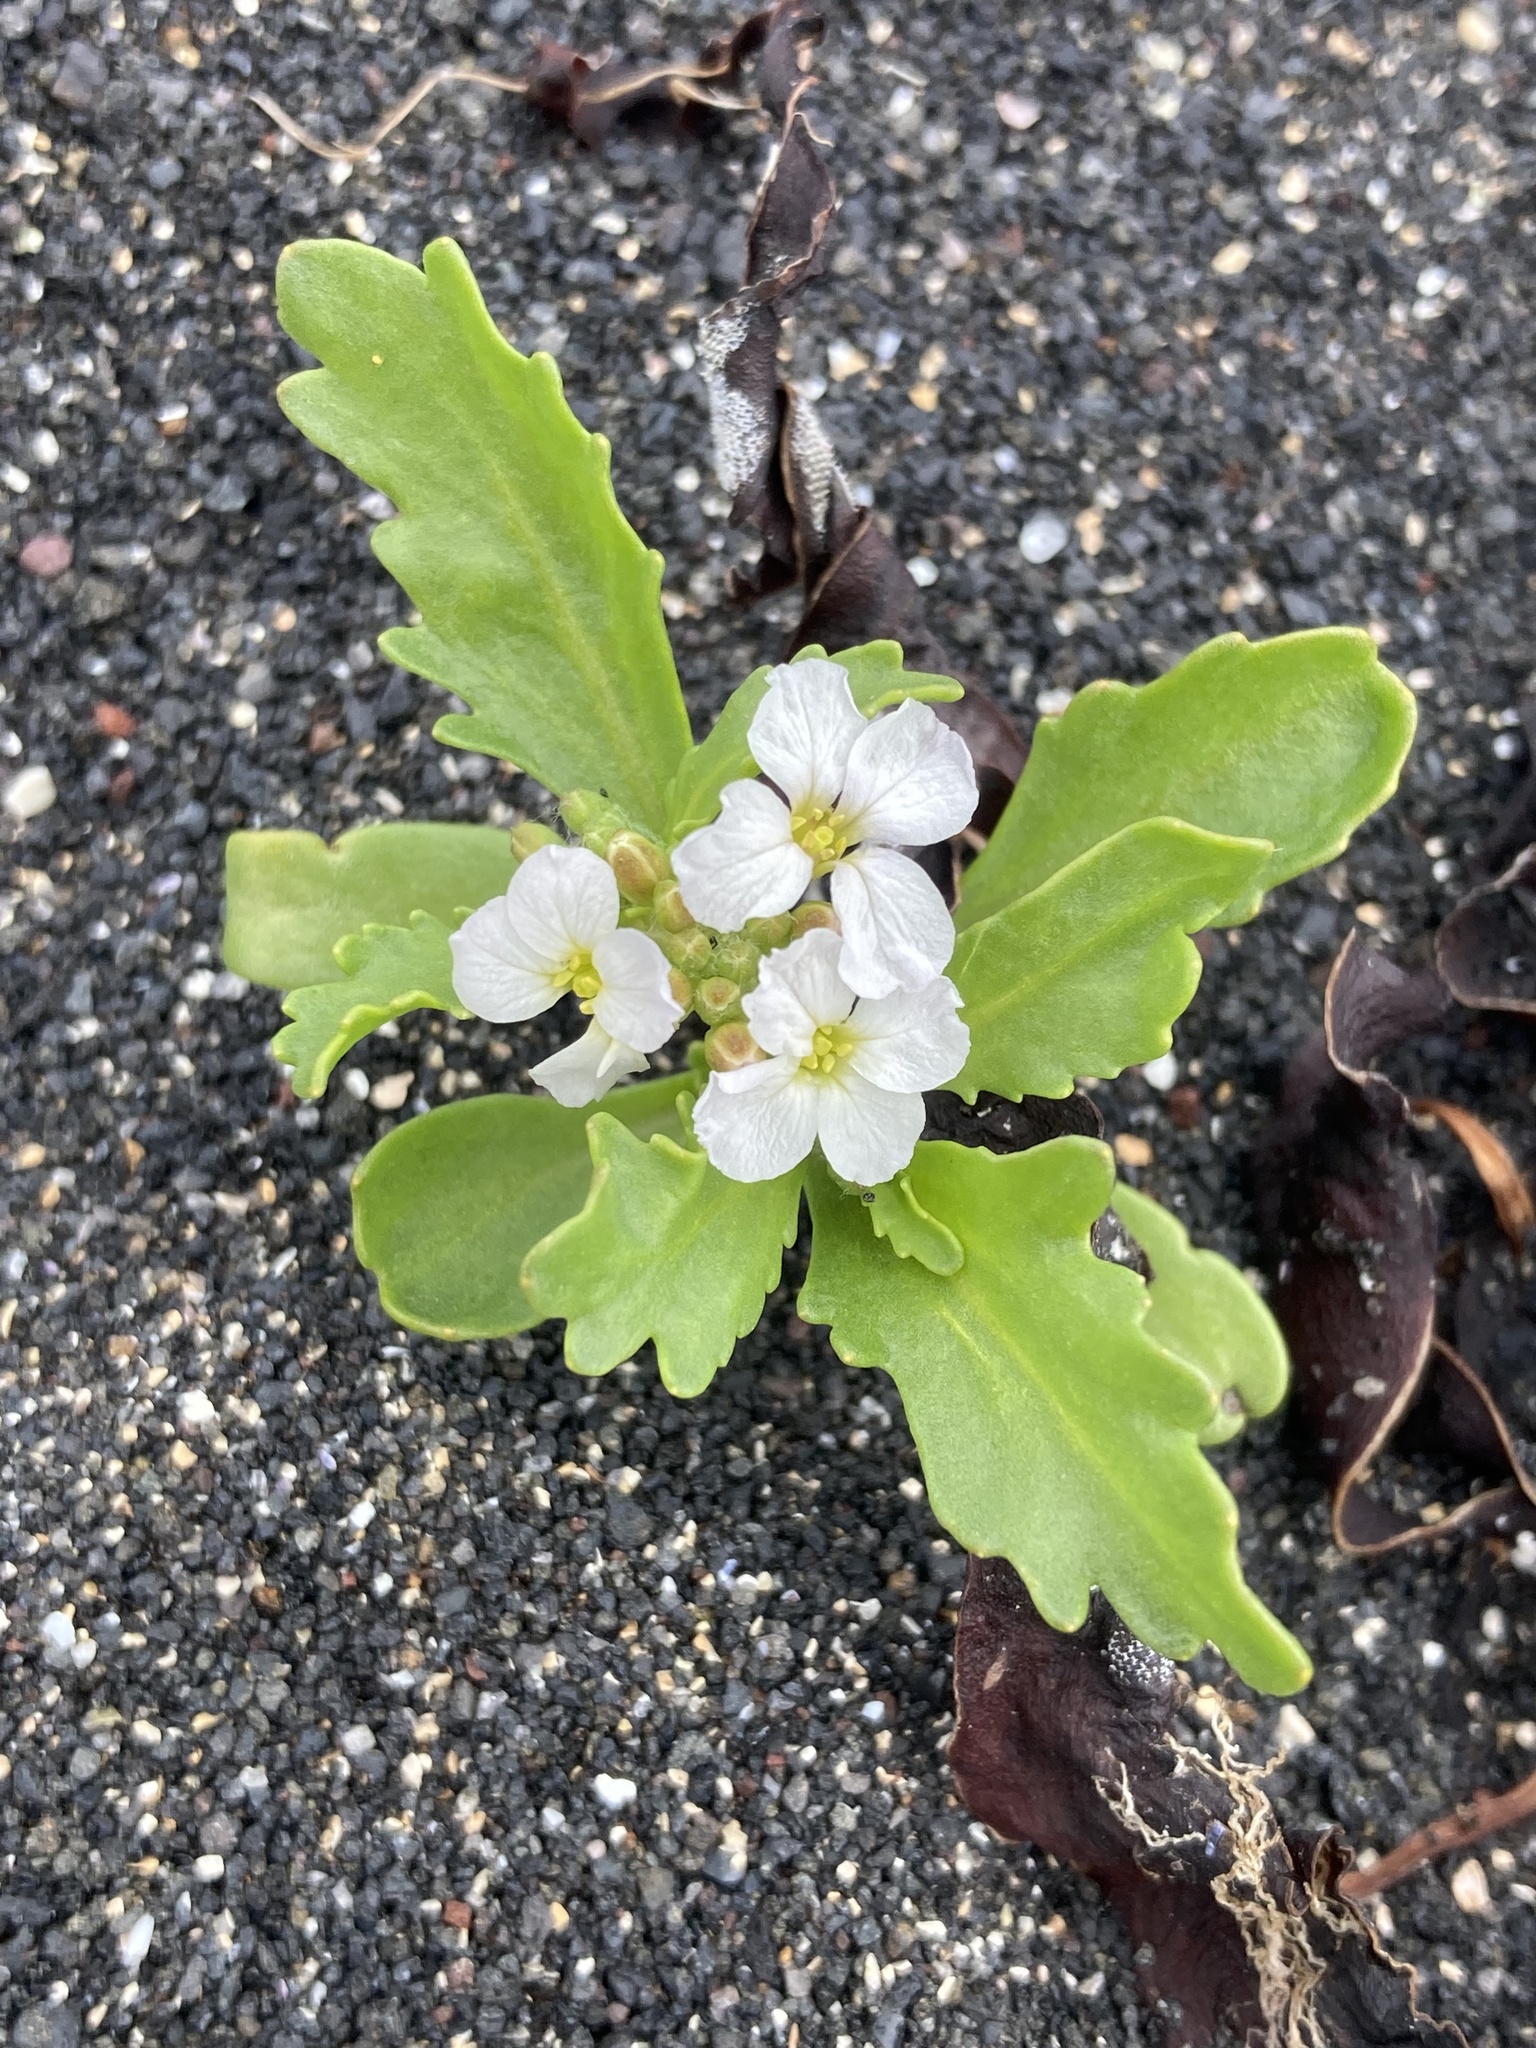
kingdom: Plantae
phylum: Tracheophyta
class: Magnoliopsida
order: Brassicales
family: Brassicaceae
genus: Cakile
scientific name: Cakile arctica
